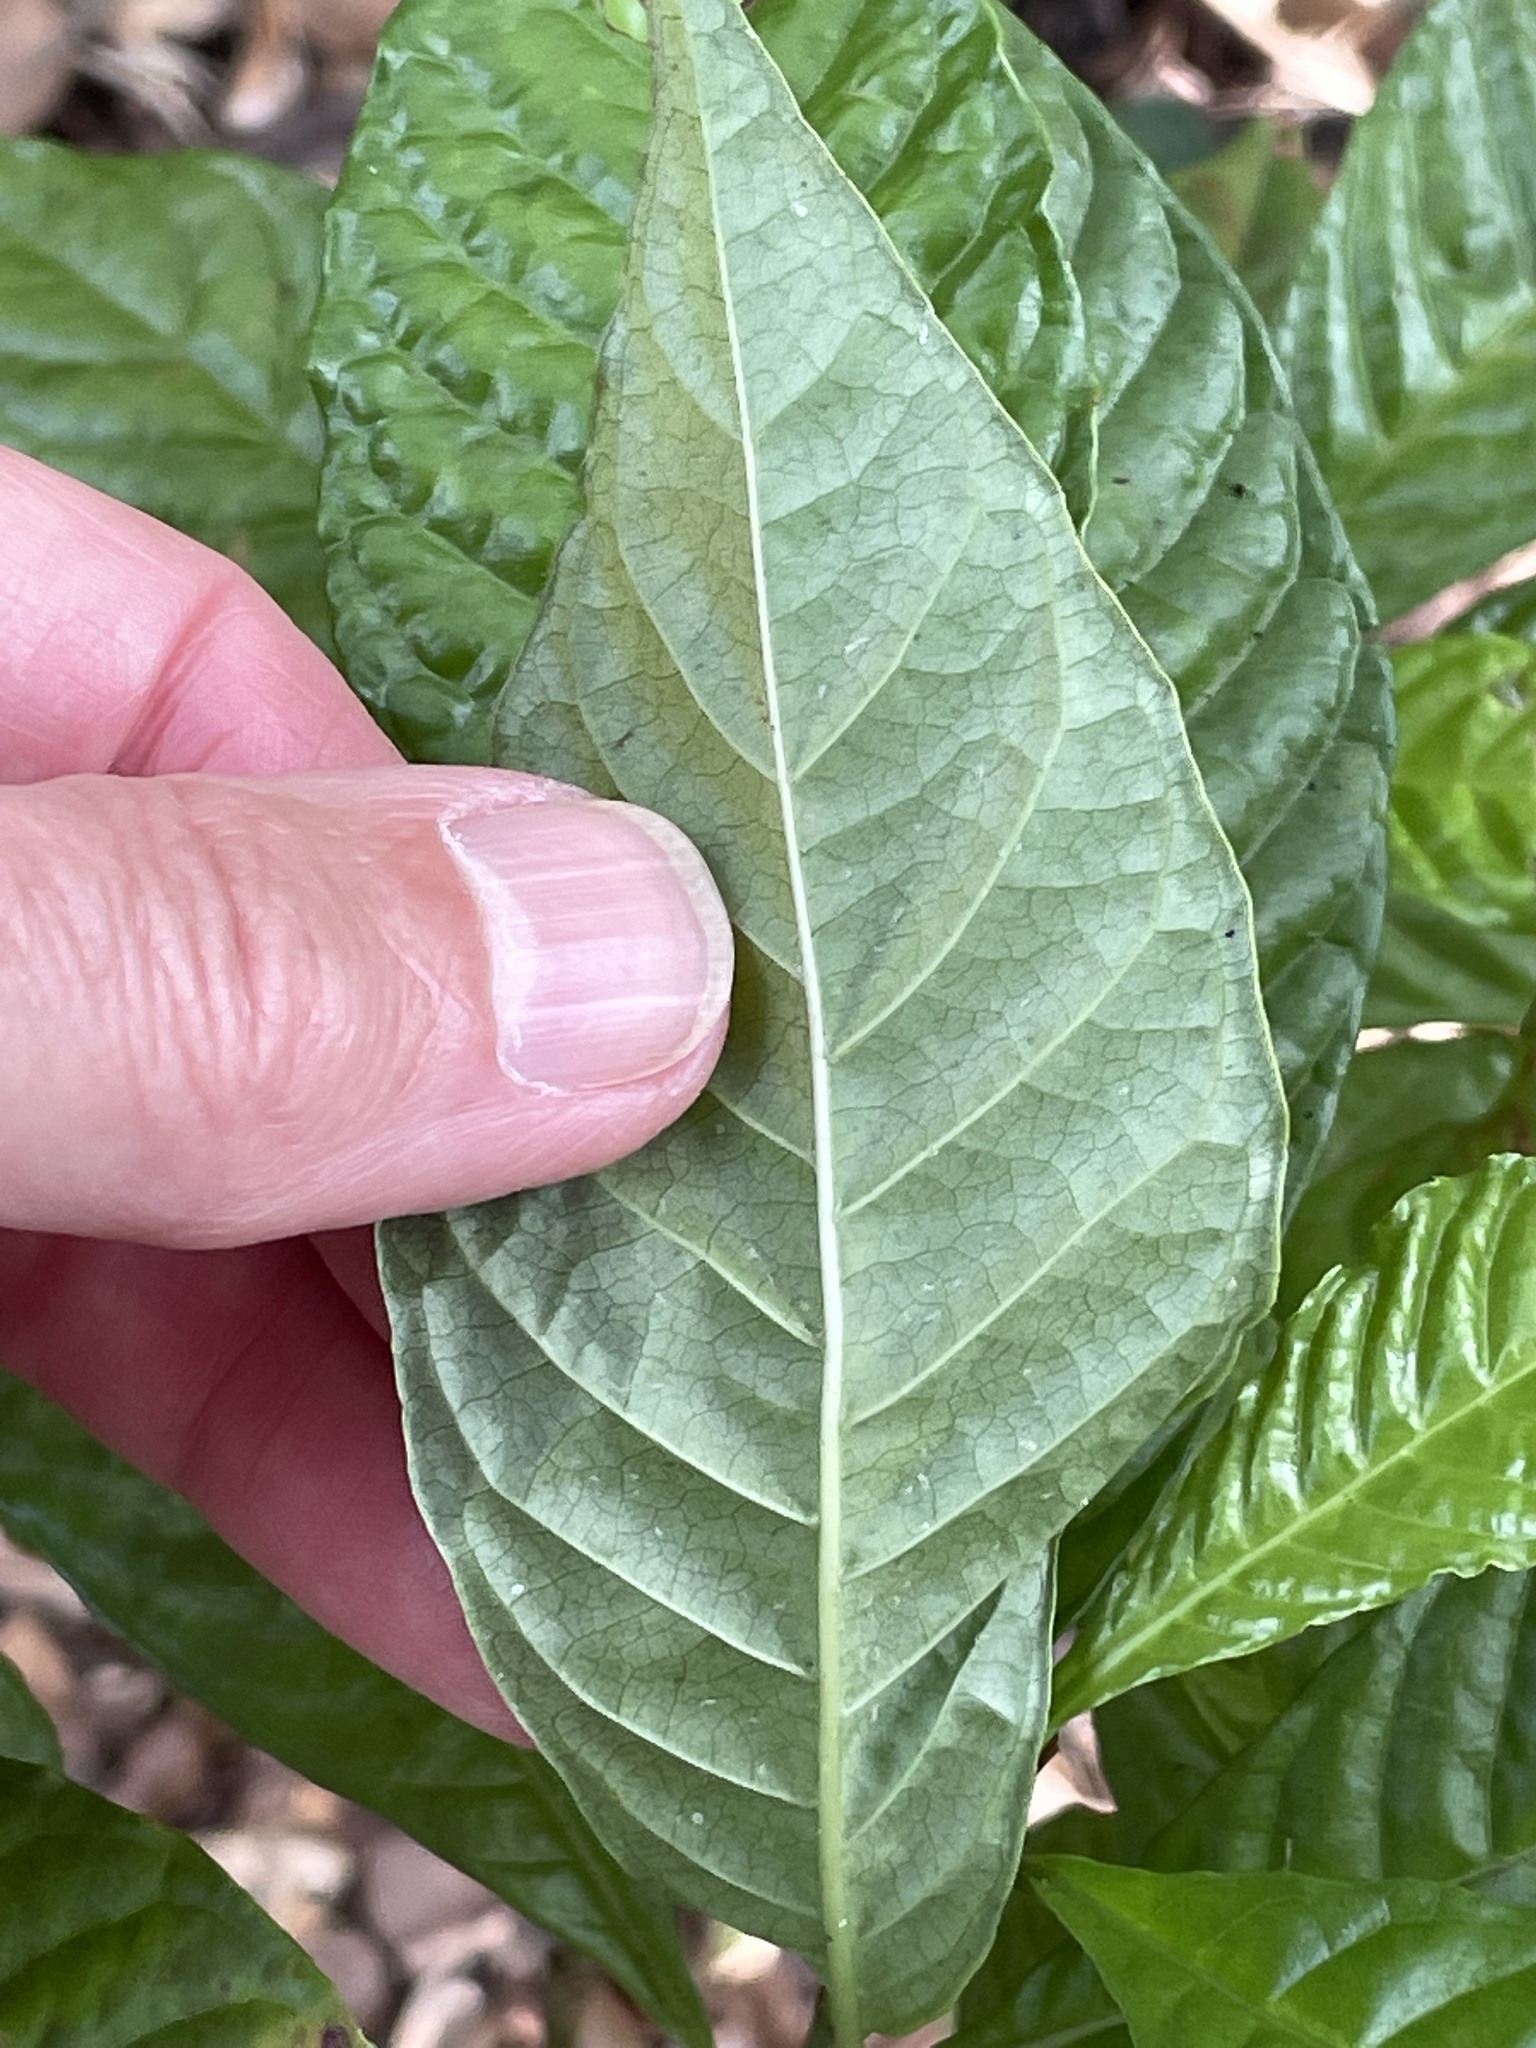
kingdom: Plantae
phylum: Tracheophyta
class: Magnoliopsida
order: Gentianales
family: Rubiaceae
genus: Psychotria
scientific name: Psychotria nervosa
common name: Bastard cankerberry
